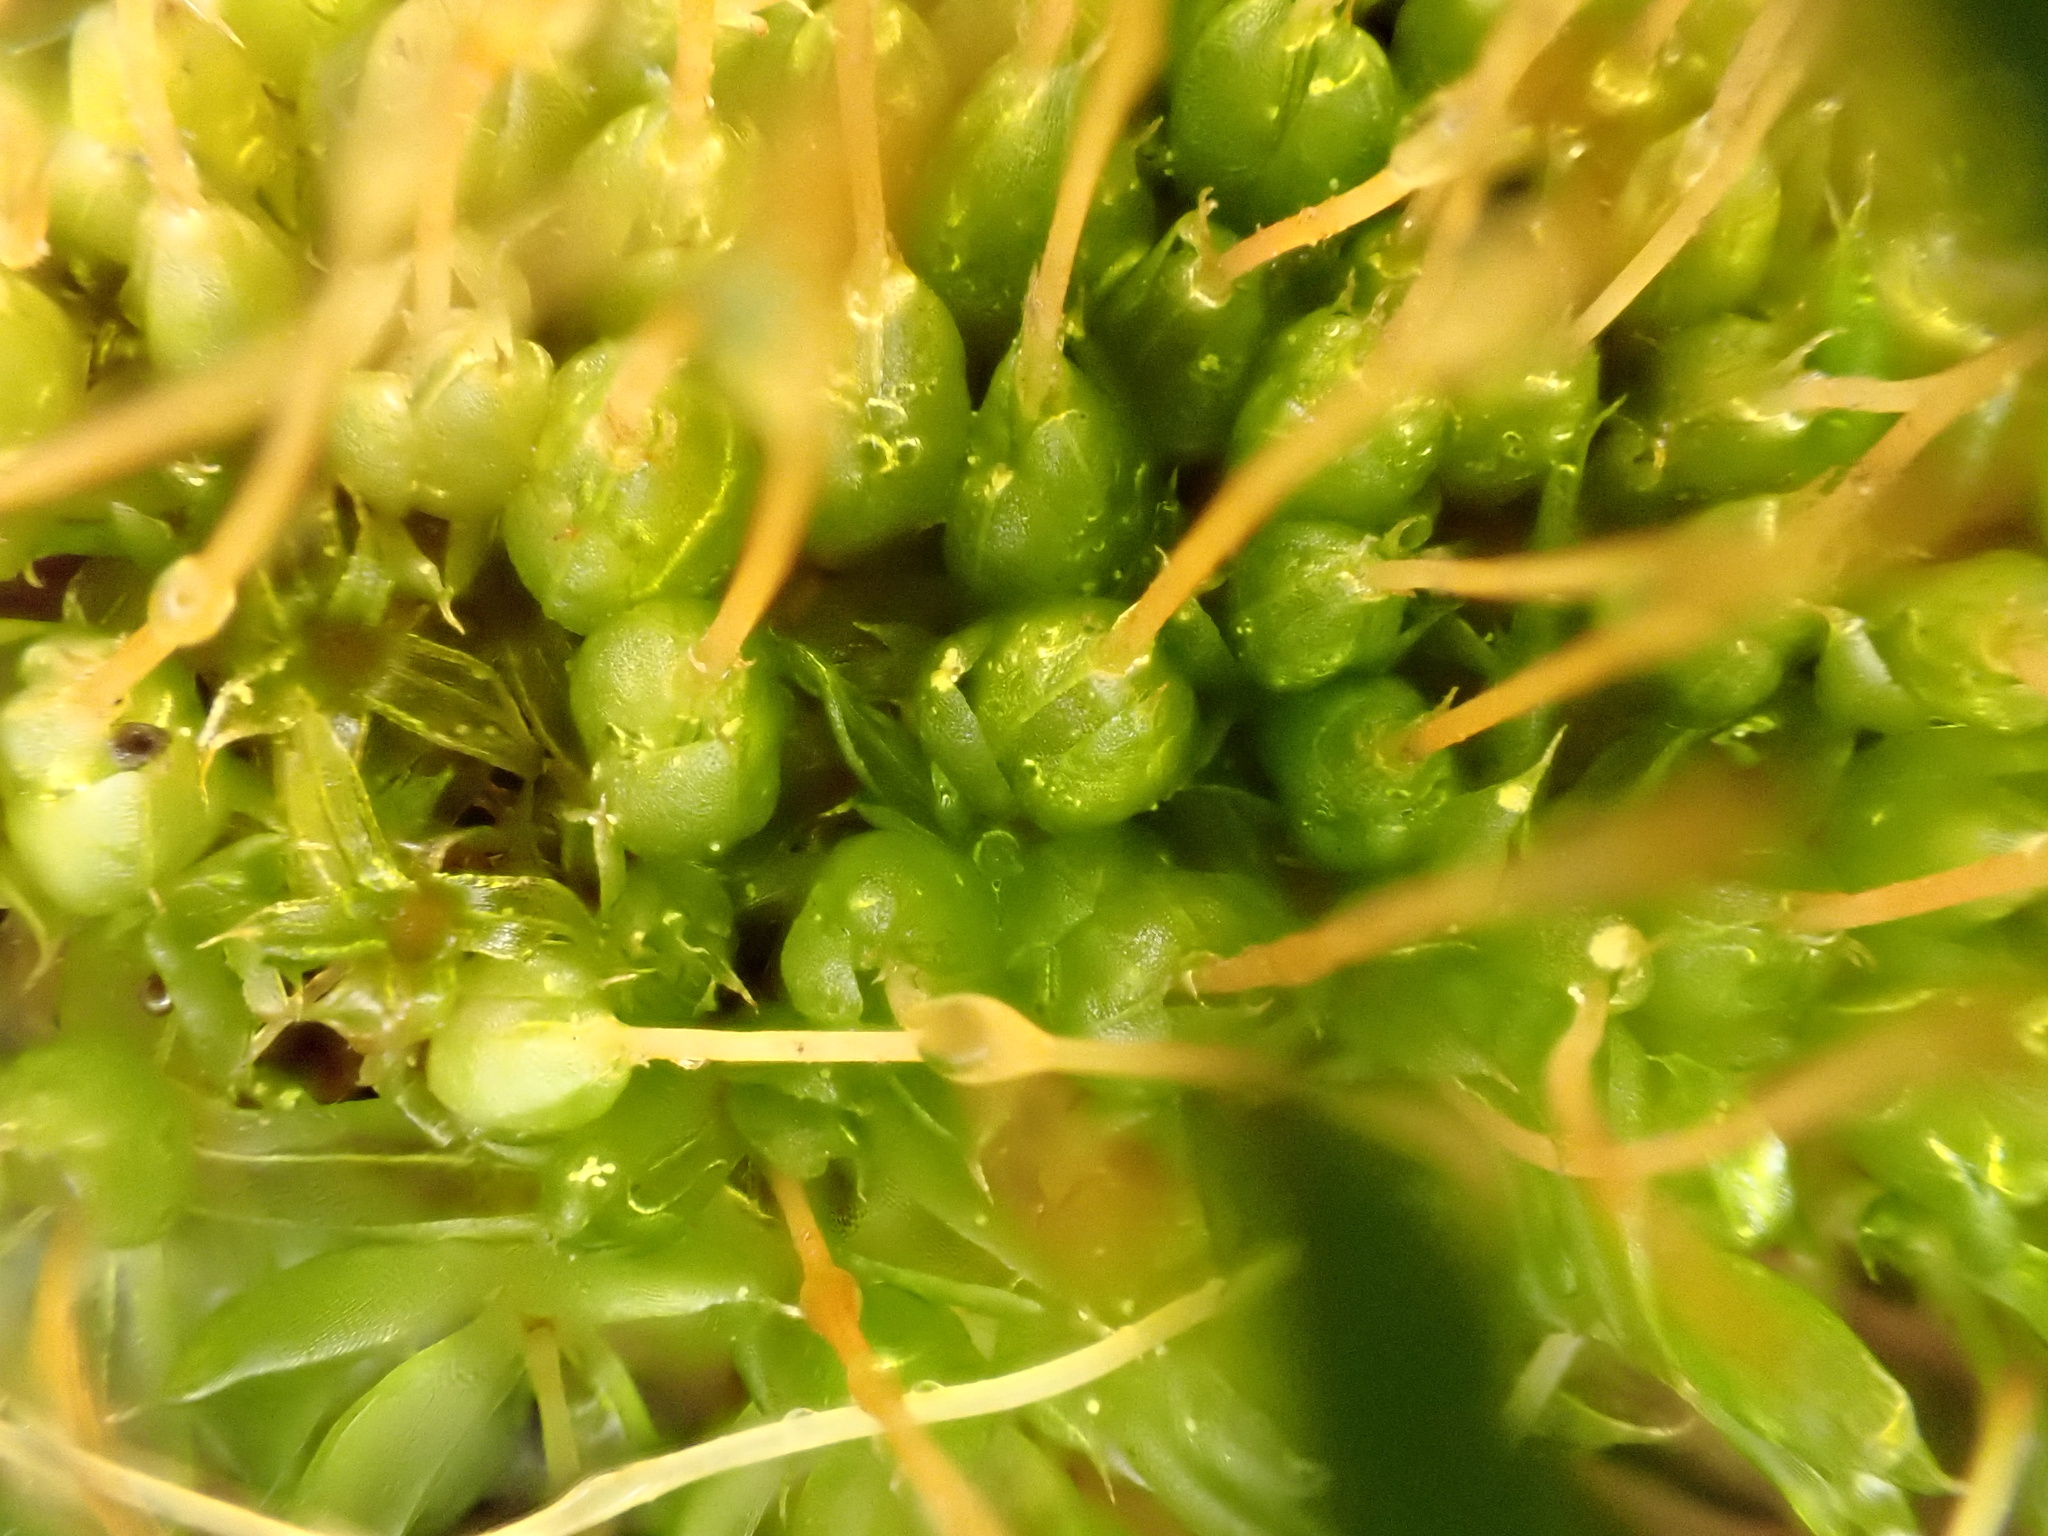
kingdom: Plantae
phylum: Bryophyta
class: Bryopsida
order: Funariales
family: Funariaceae
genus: Funaria
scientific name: Funaria hygrometrica
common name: Common cord moss
